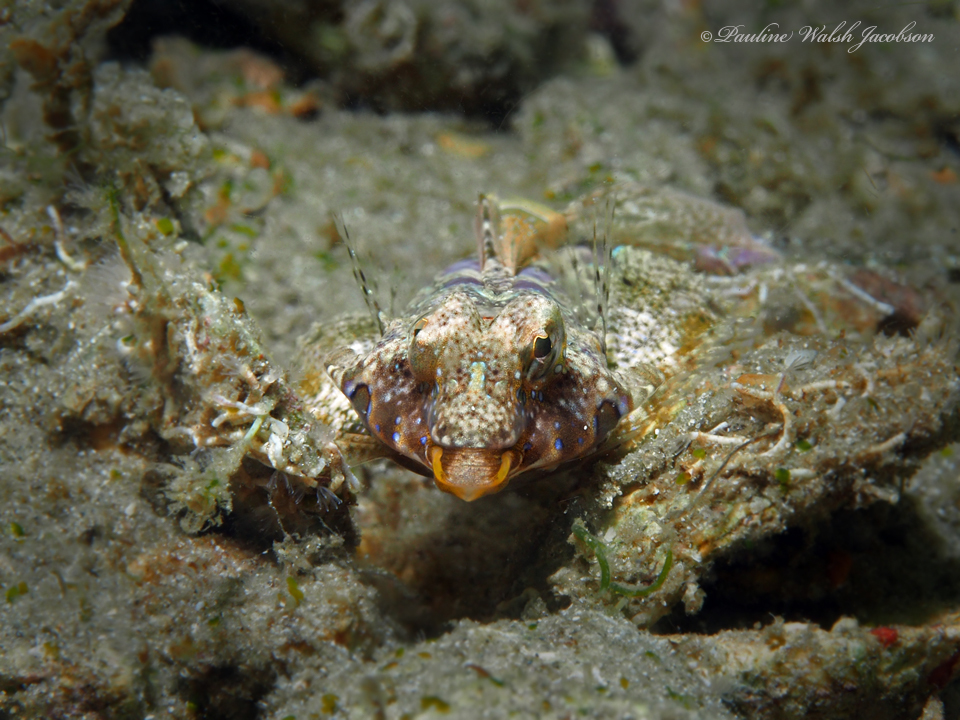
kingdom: Animalia
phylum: Chordata
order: Perciformes
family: Callionymidae
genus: Callionymus
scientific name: Callionymus bairdi
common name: Lancer dragonet
